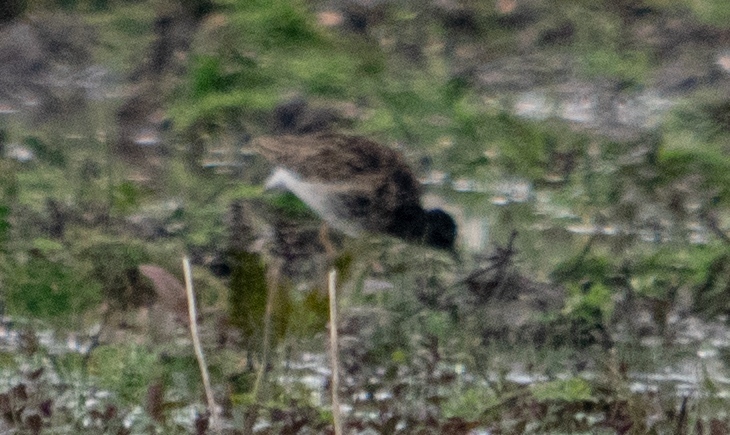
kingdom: Animalia
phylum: Chordata
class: Aves
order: Charadriiformes
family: Scolopacidae
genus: Calidris
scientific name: Calidris pugnax
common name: Ruff
